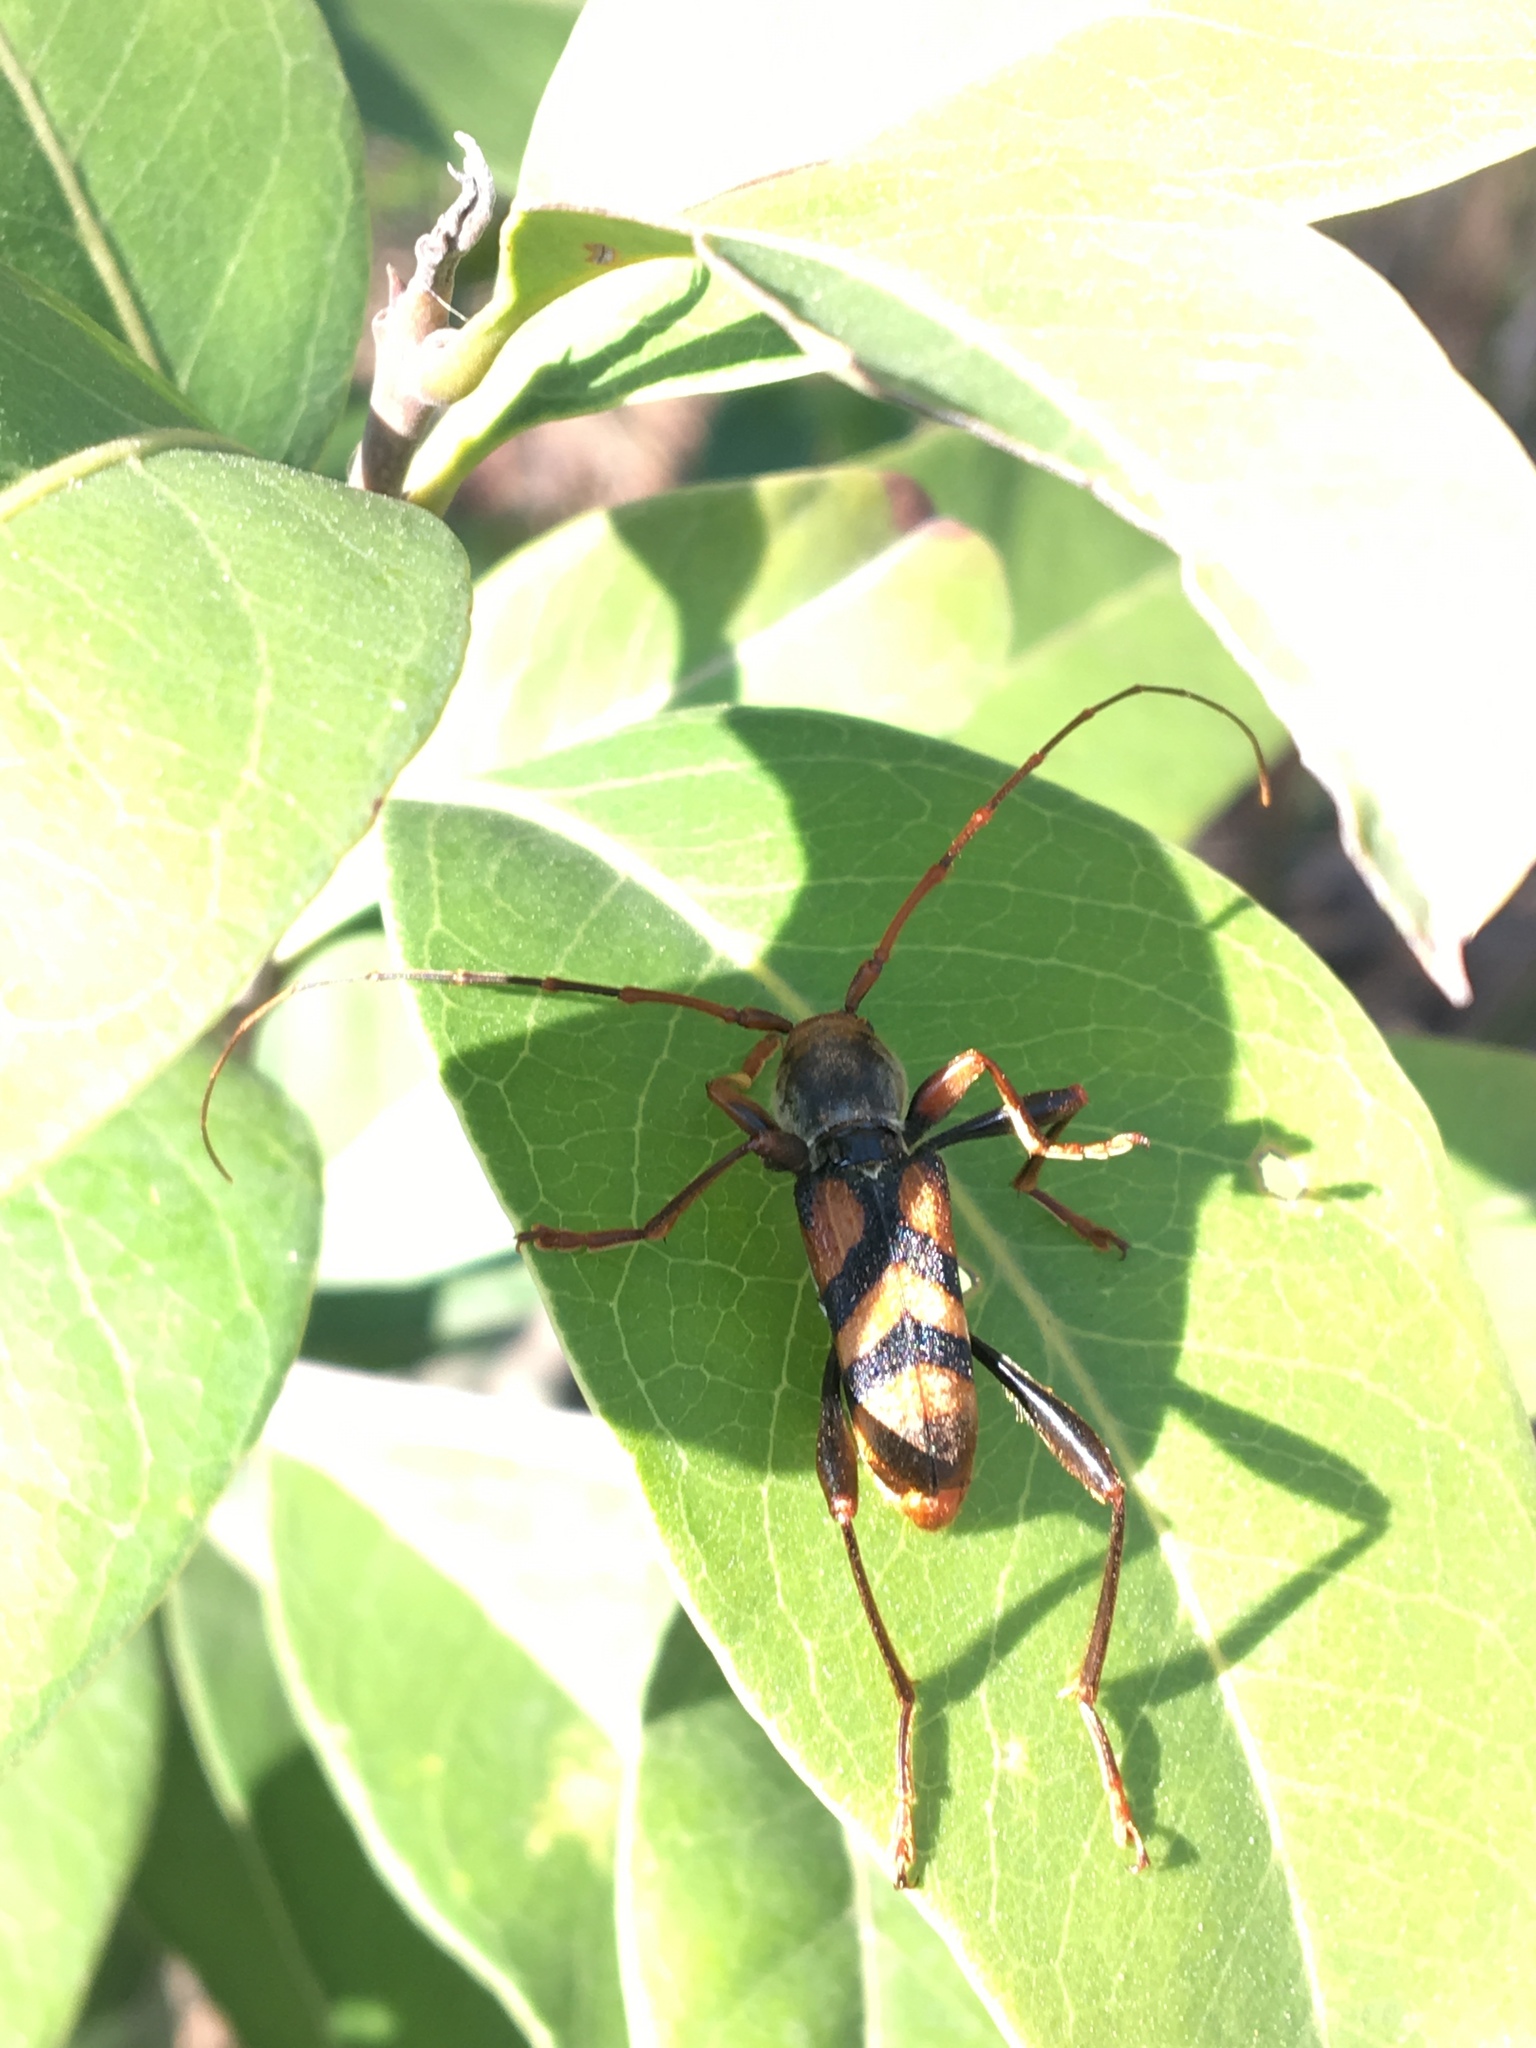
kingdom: Animalia
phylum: Arthropoda
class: Insecta
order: Coleoptera
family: Cerambycidae
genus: Aridaeus
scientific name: Aridaeus thoracicus
